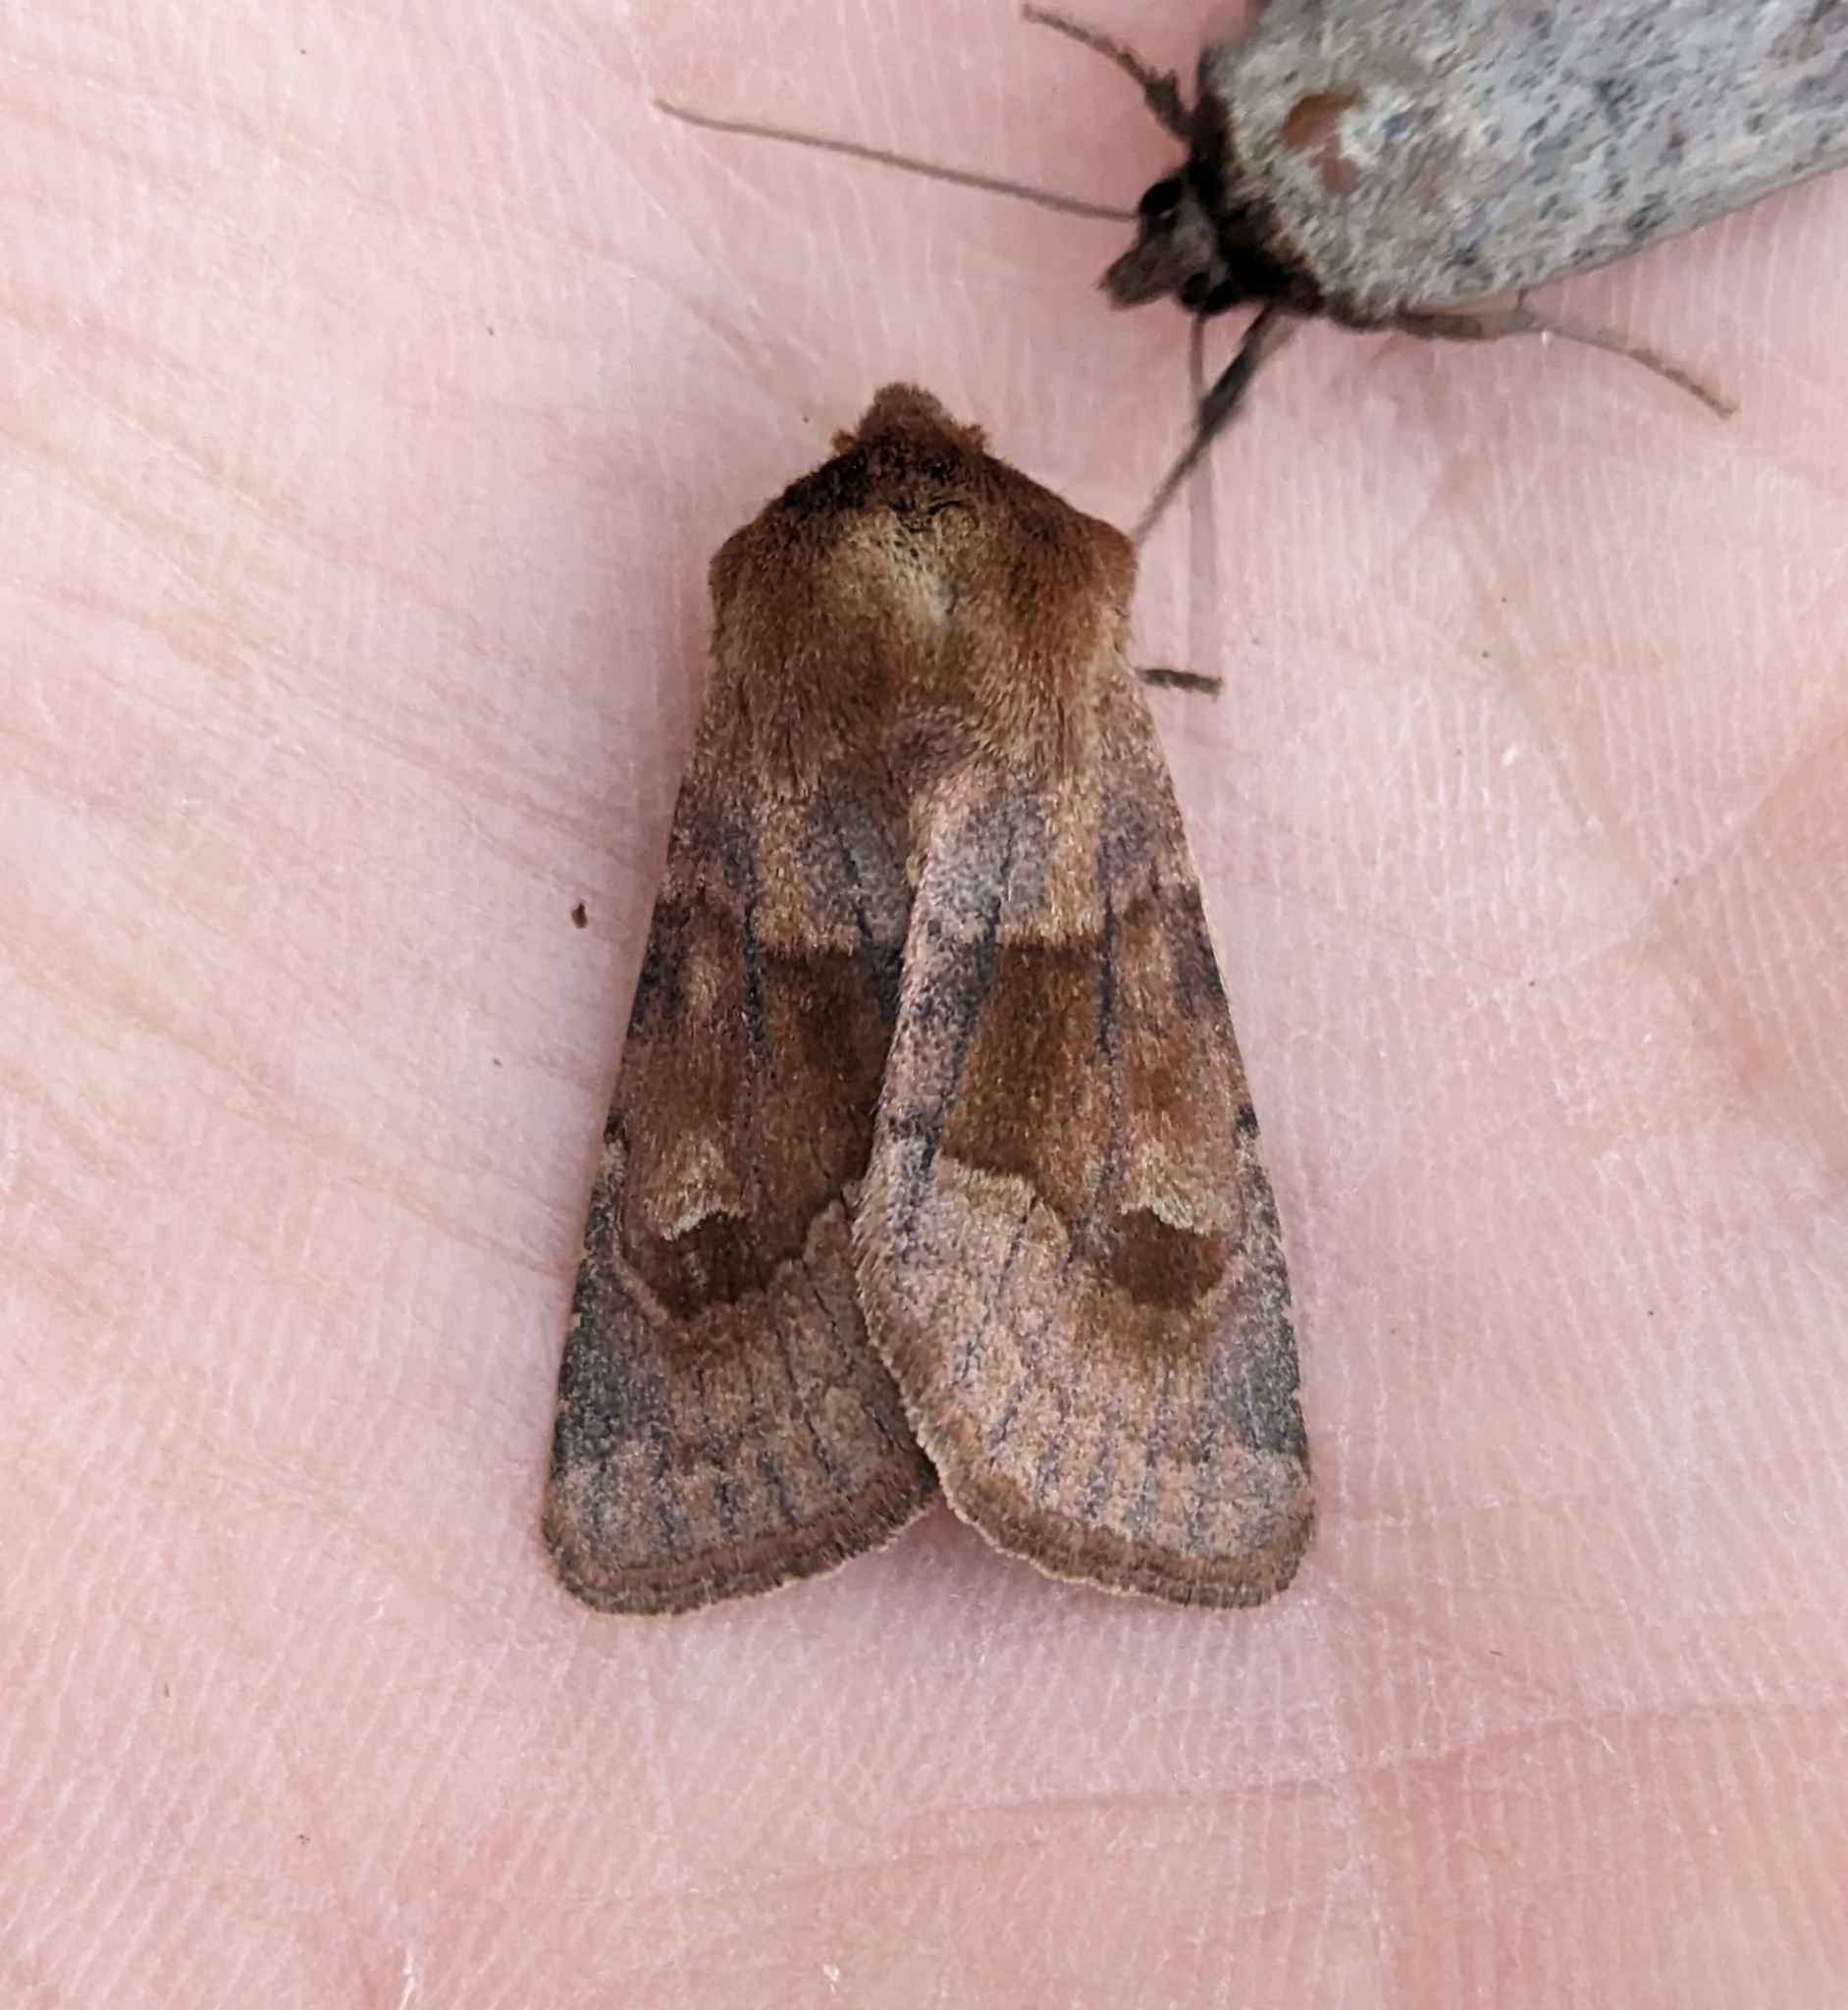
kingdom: Animalia
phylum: Arthropoda
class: Insecta
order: Lepidoptera
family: Noctuidae
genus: Nephelodes
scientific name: Nephelodes minians
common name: Bronzed cutworm
